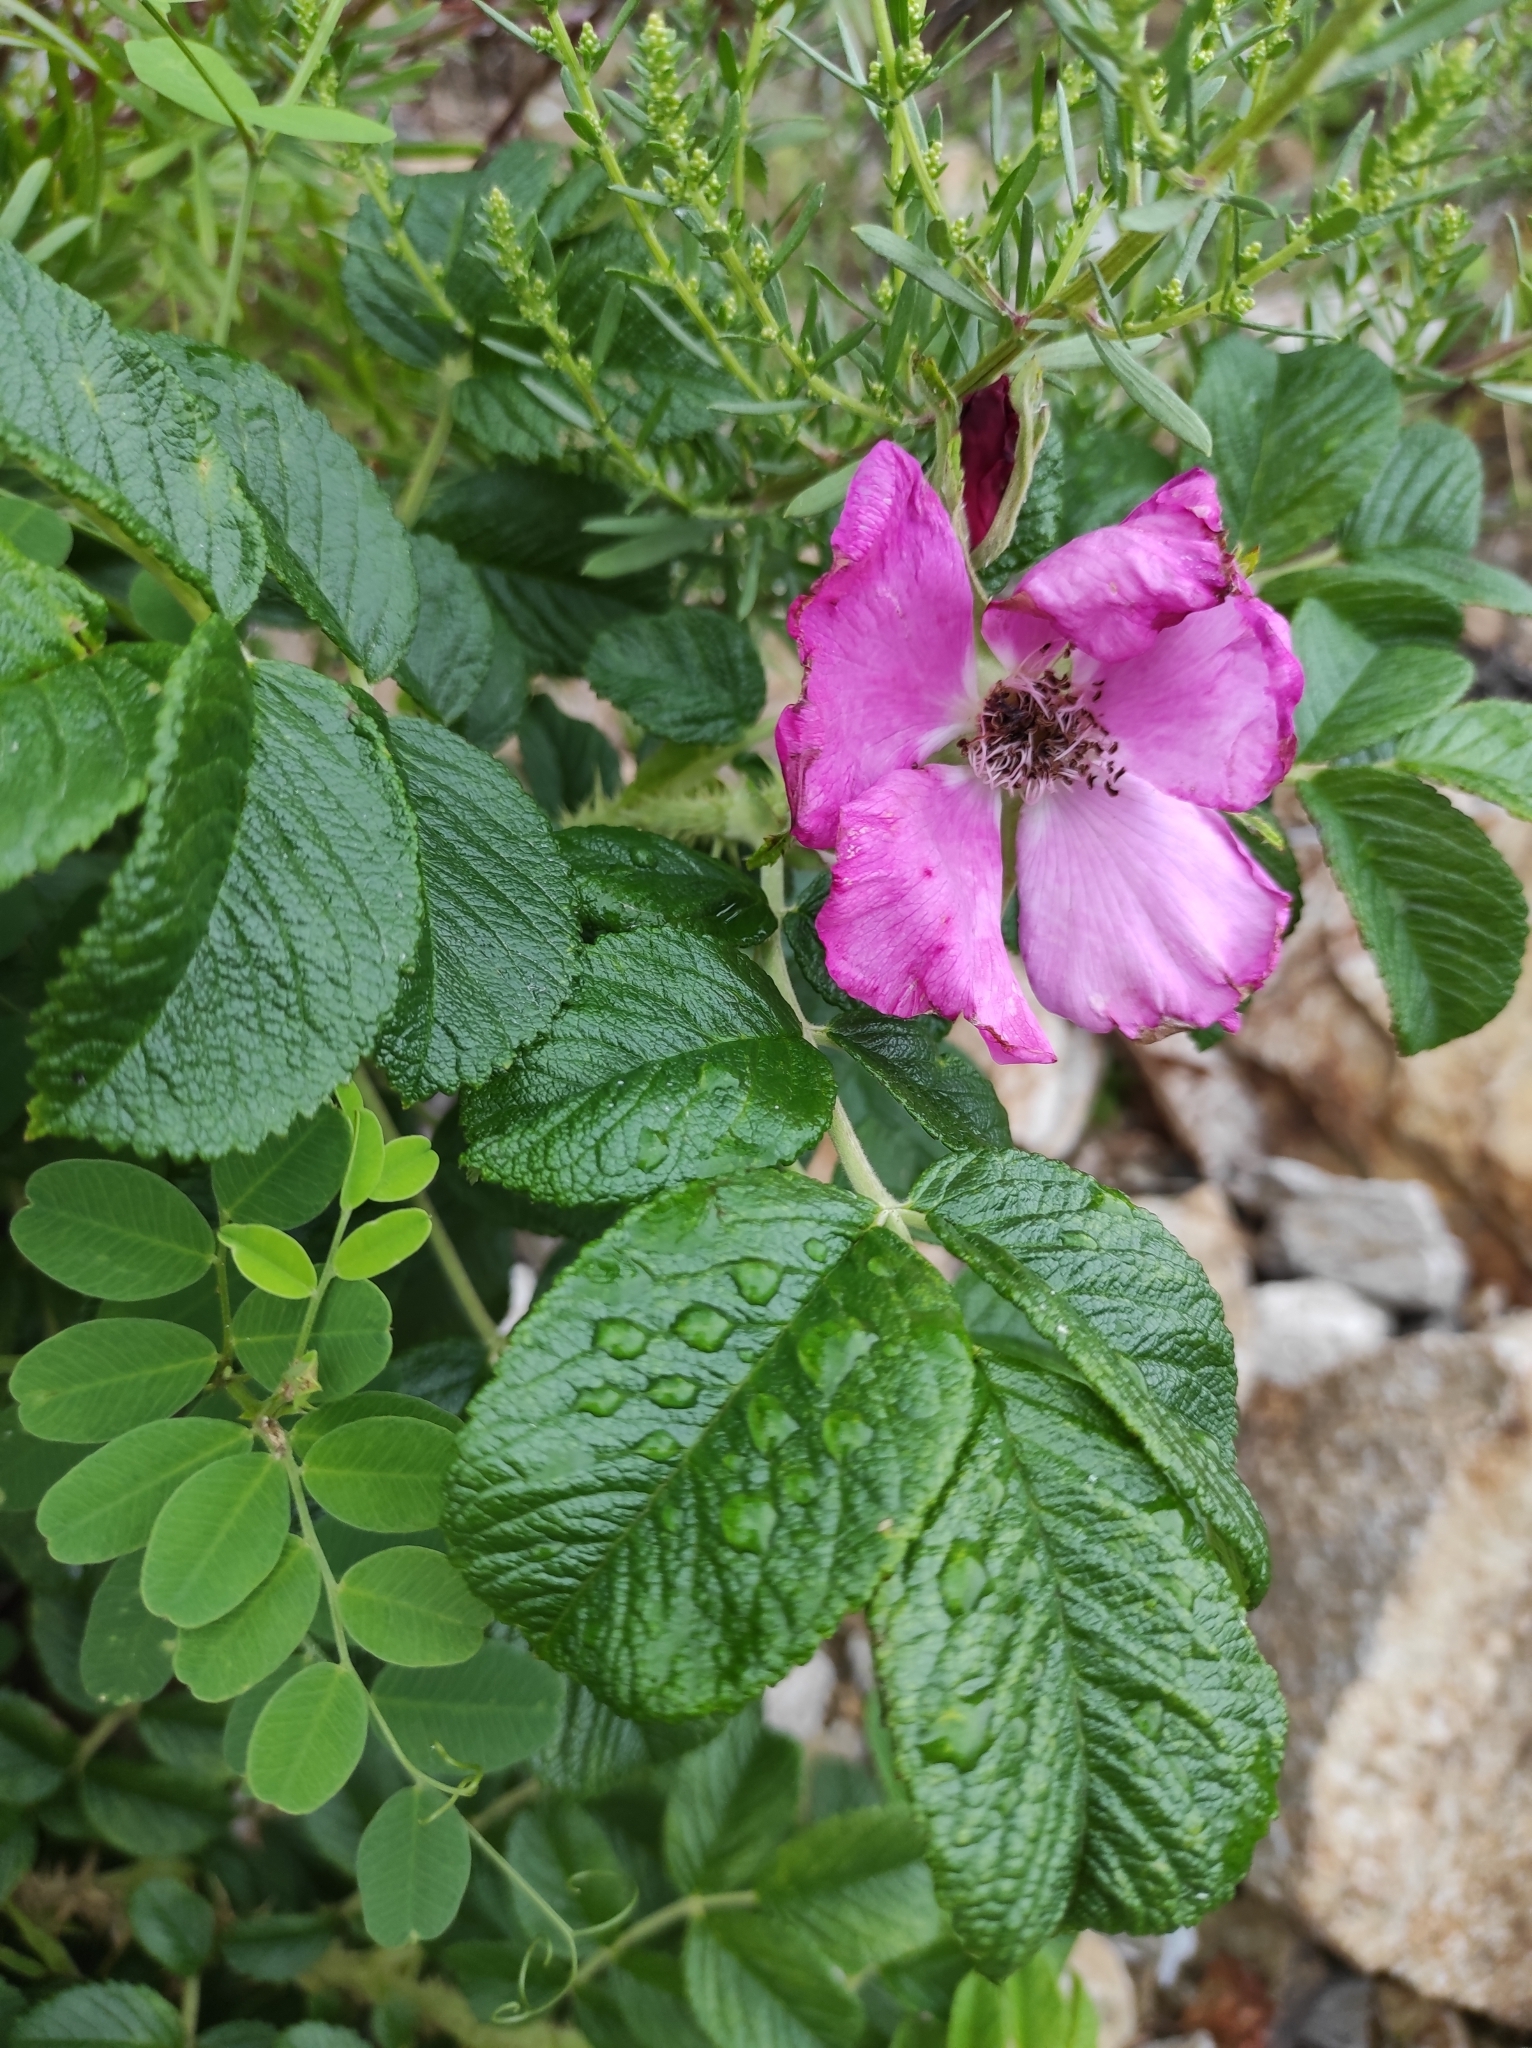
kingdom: Plantae
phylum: Tracheophyta
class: Magnoliopsida
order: Rosales
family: Rosaceae
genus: Rosa
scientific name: Rosa rugosa
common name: Japanese rose
